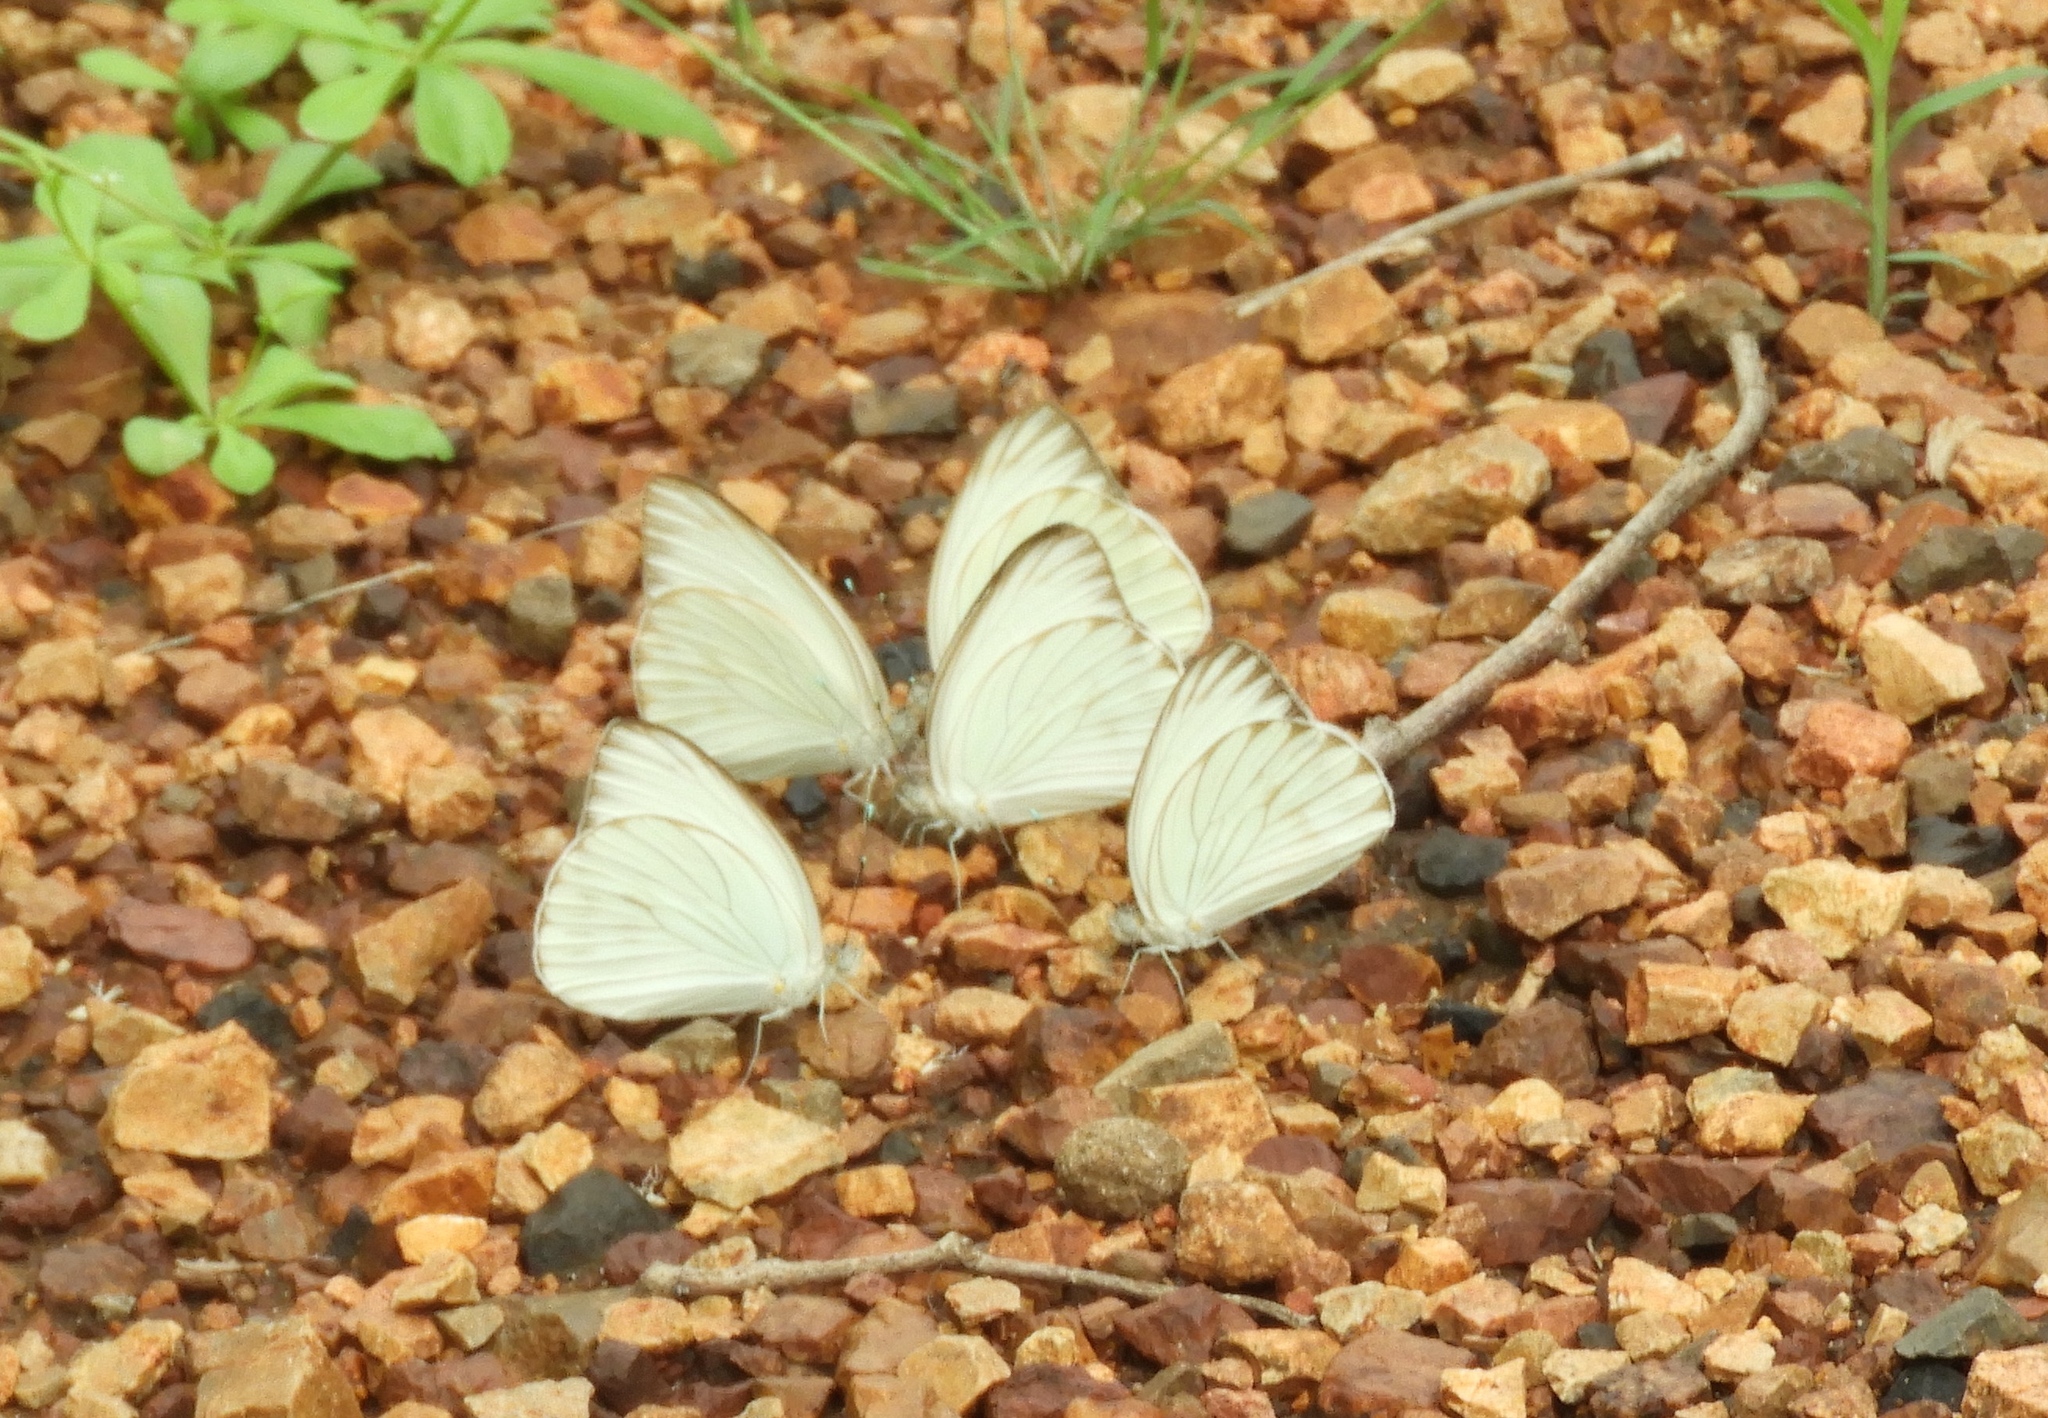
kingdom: Animalia
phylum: Arthropoda
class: Insecta
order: Lepidoptera
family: Pieridae
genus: Ascia
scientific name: Ascia monuste
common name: Great southern white
